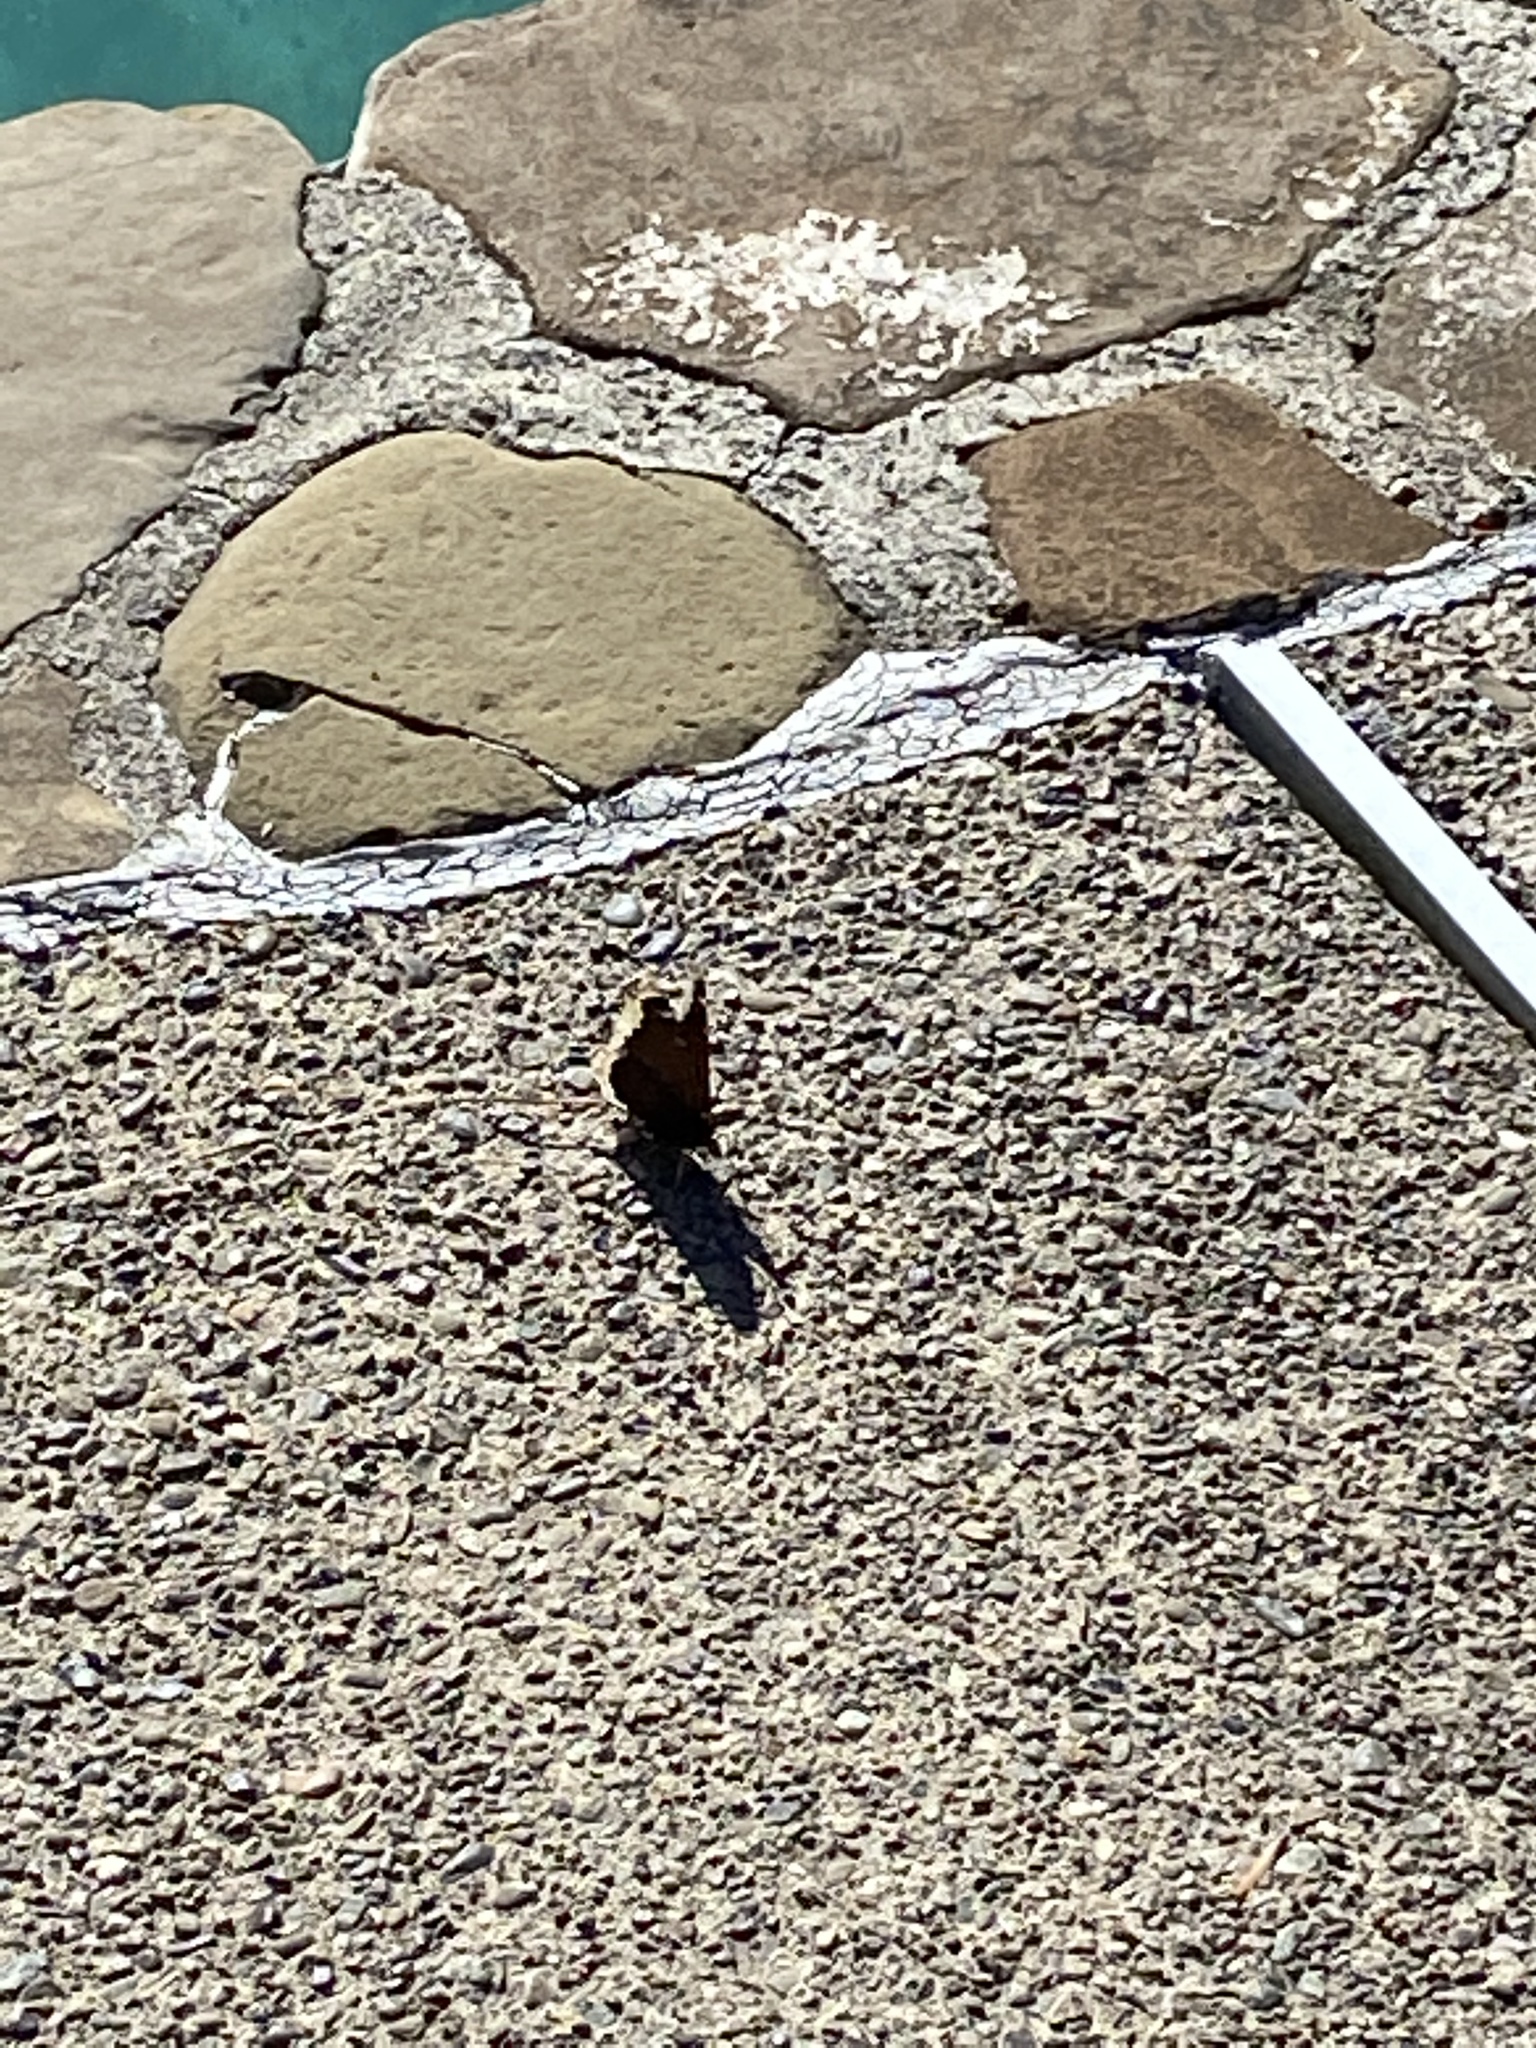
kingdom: Animalia
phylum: Arthropoda
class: Insecta
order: Lepidoptera
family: Nymphalidae
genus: Nymphalis
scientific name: Nymphalis antiopa
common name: Camberwell beauty
